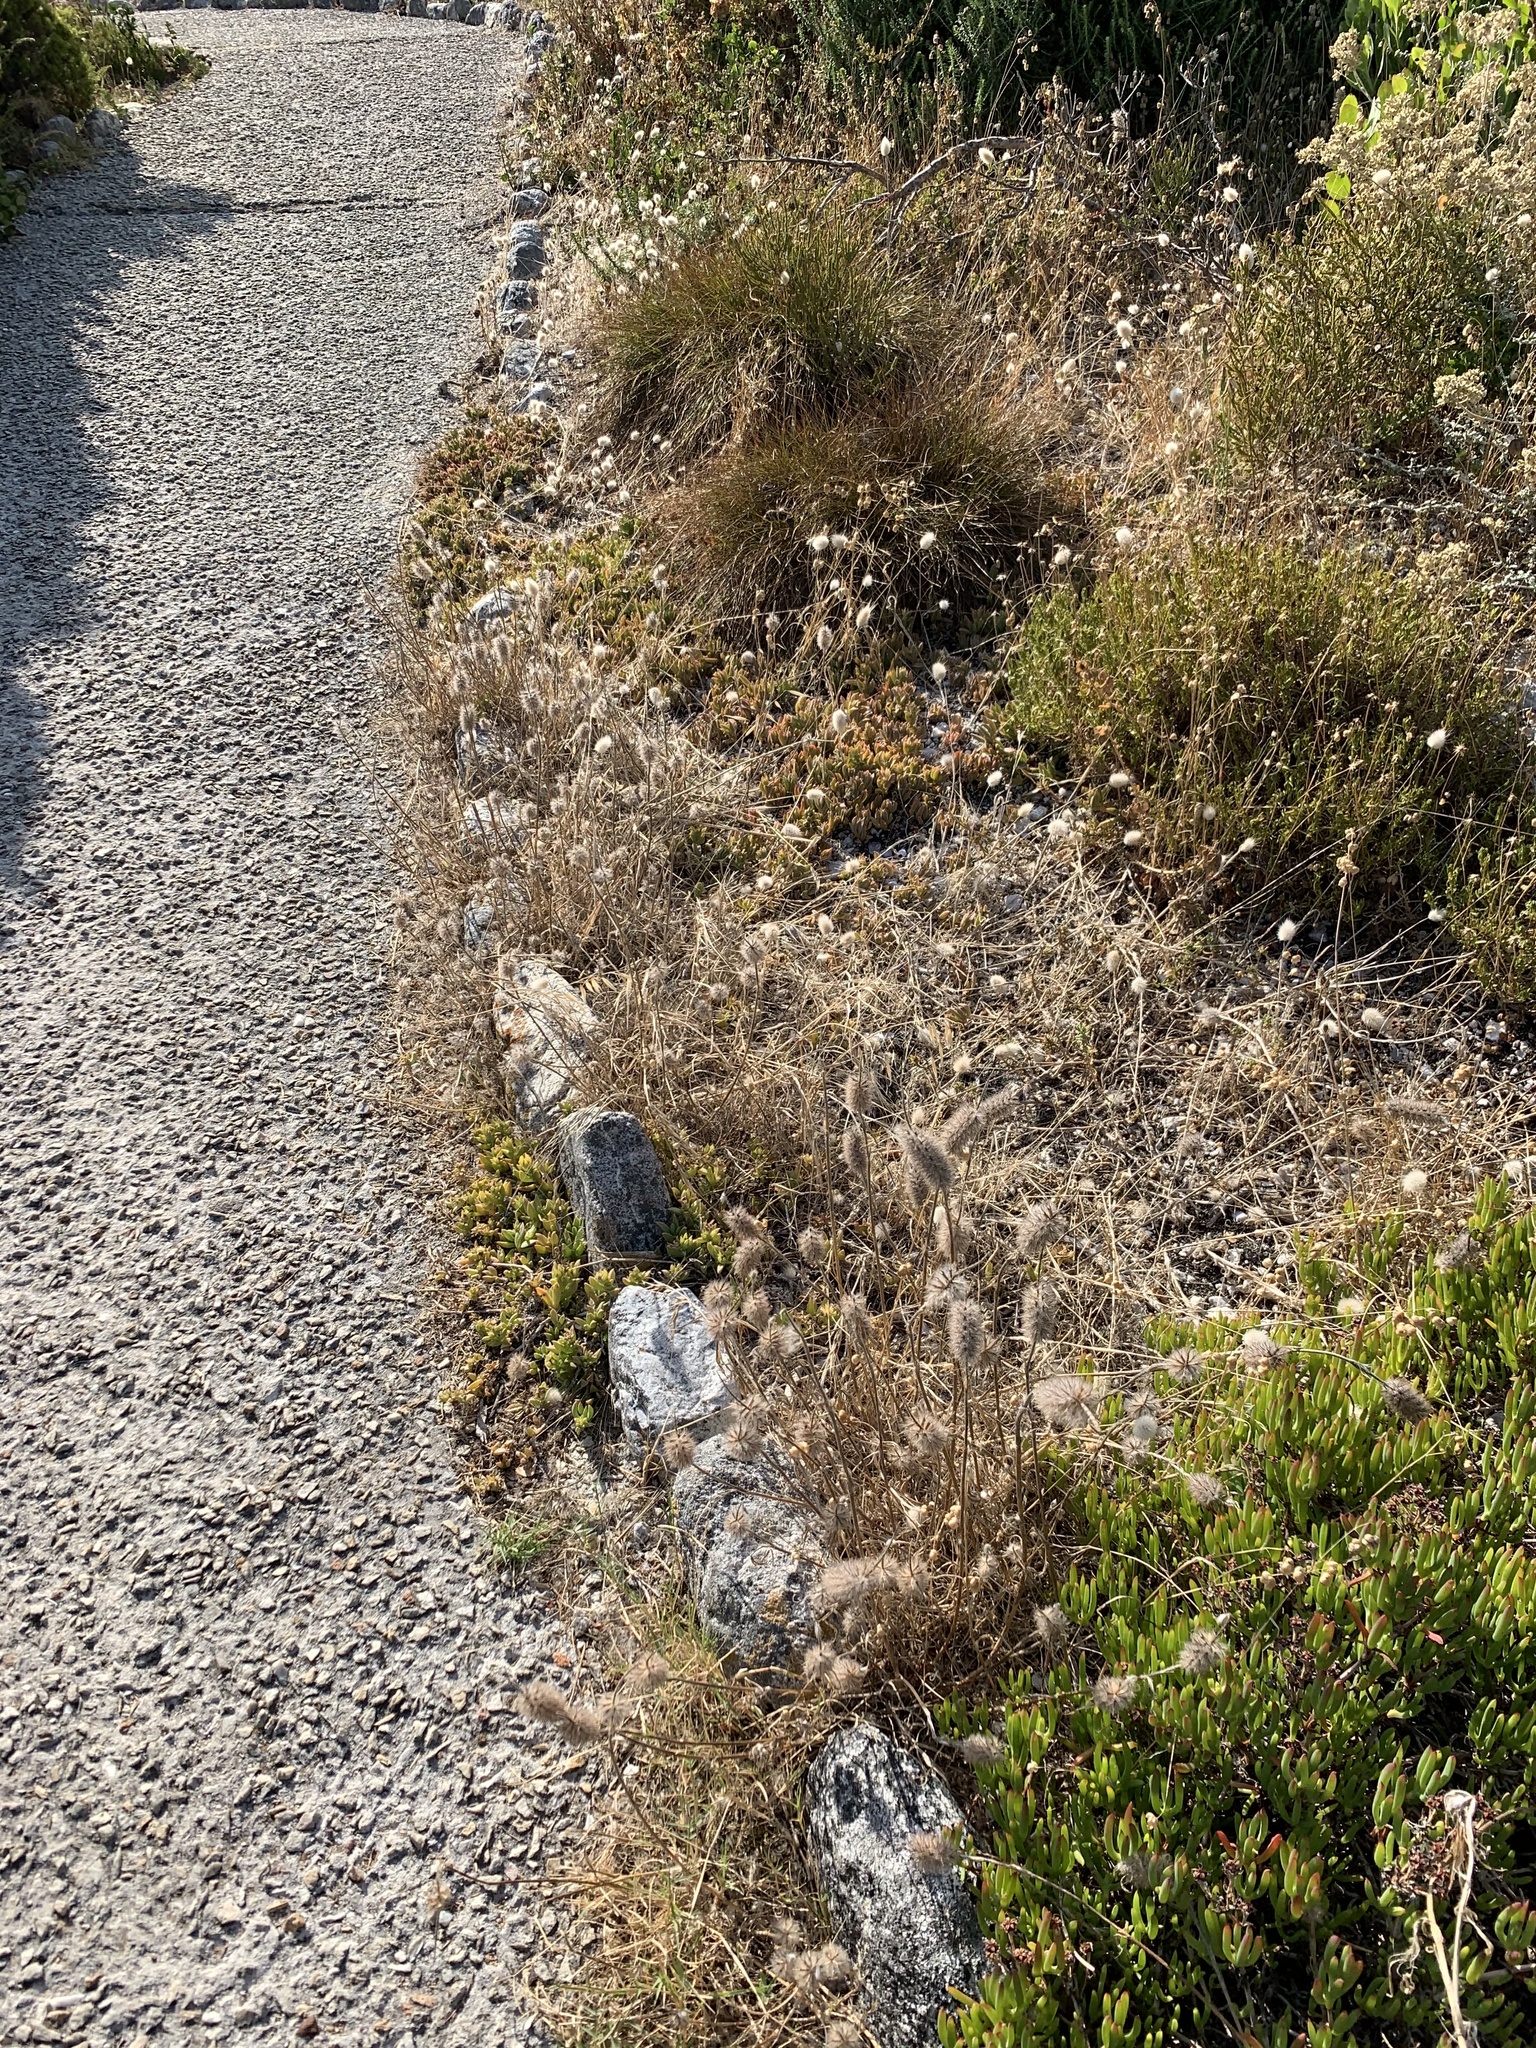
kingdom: Plantae
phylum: Tracheophyta
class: Magnoliopsida
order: Fabales
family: Fabaceae
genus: Trifolium
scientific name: Trifolium angustifolium
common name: Narrow clover
